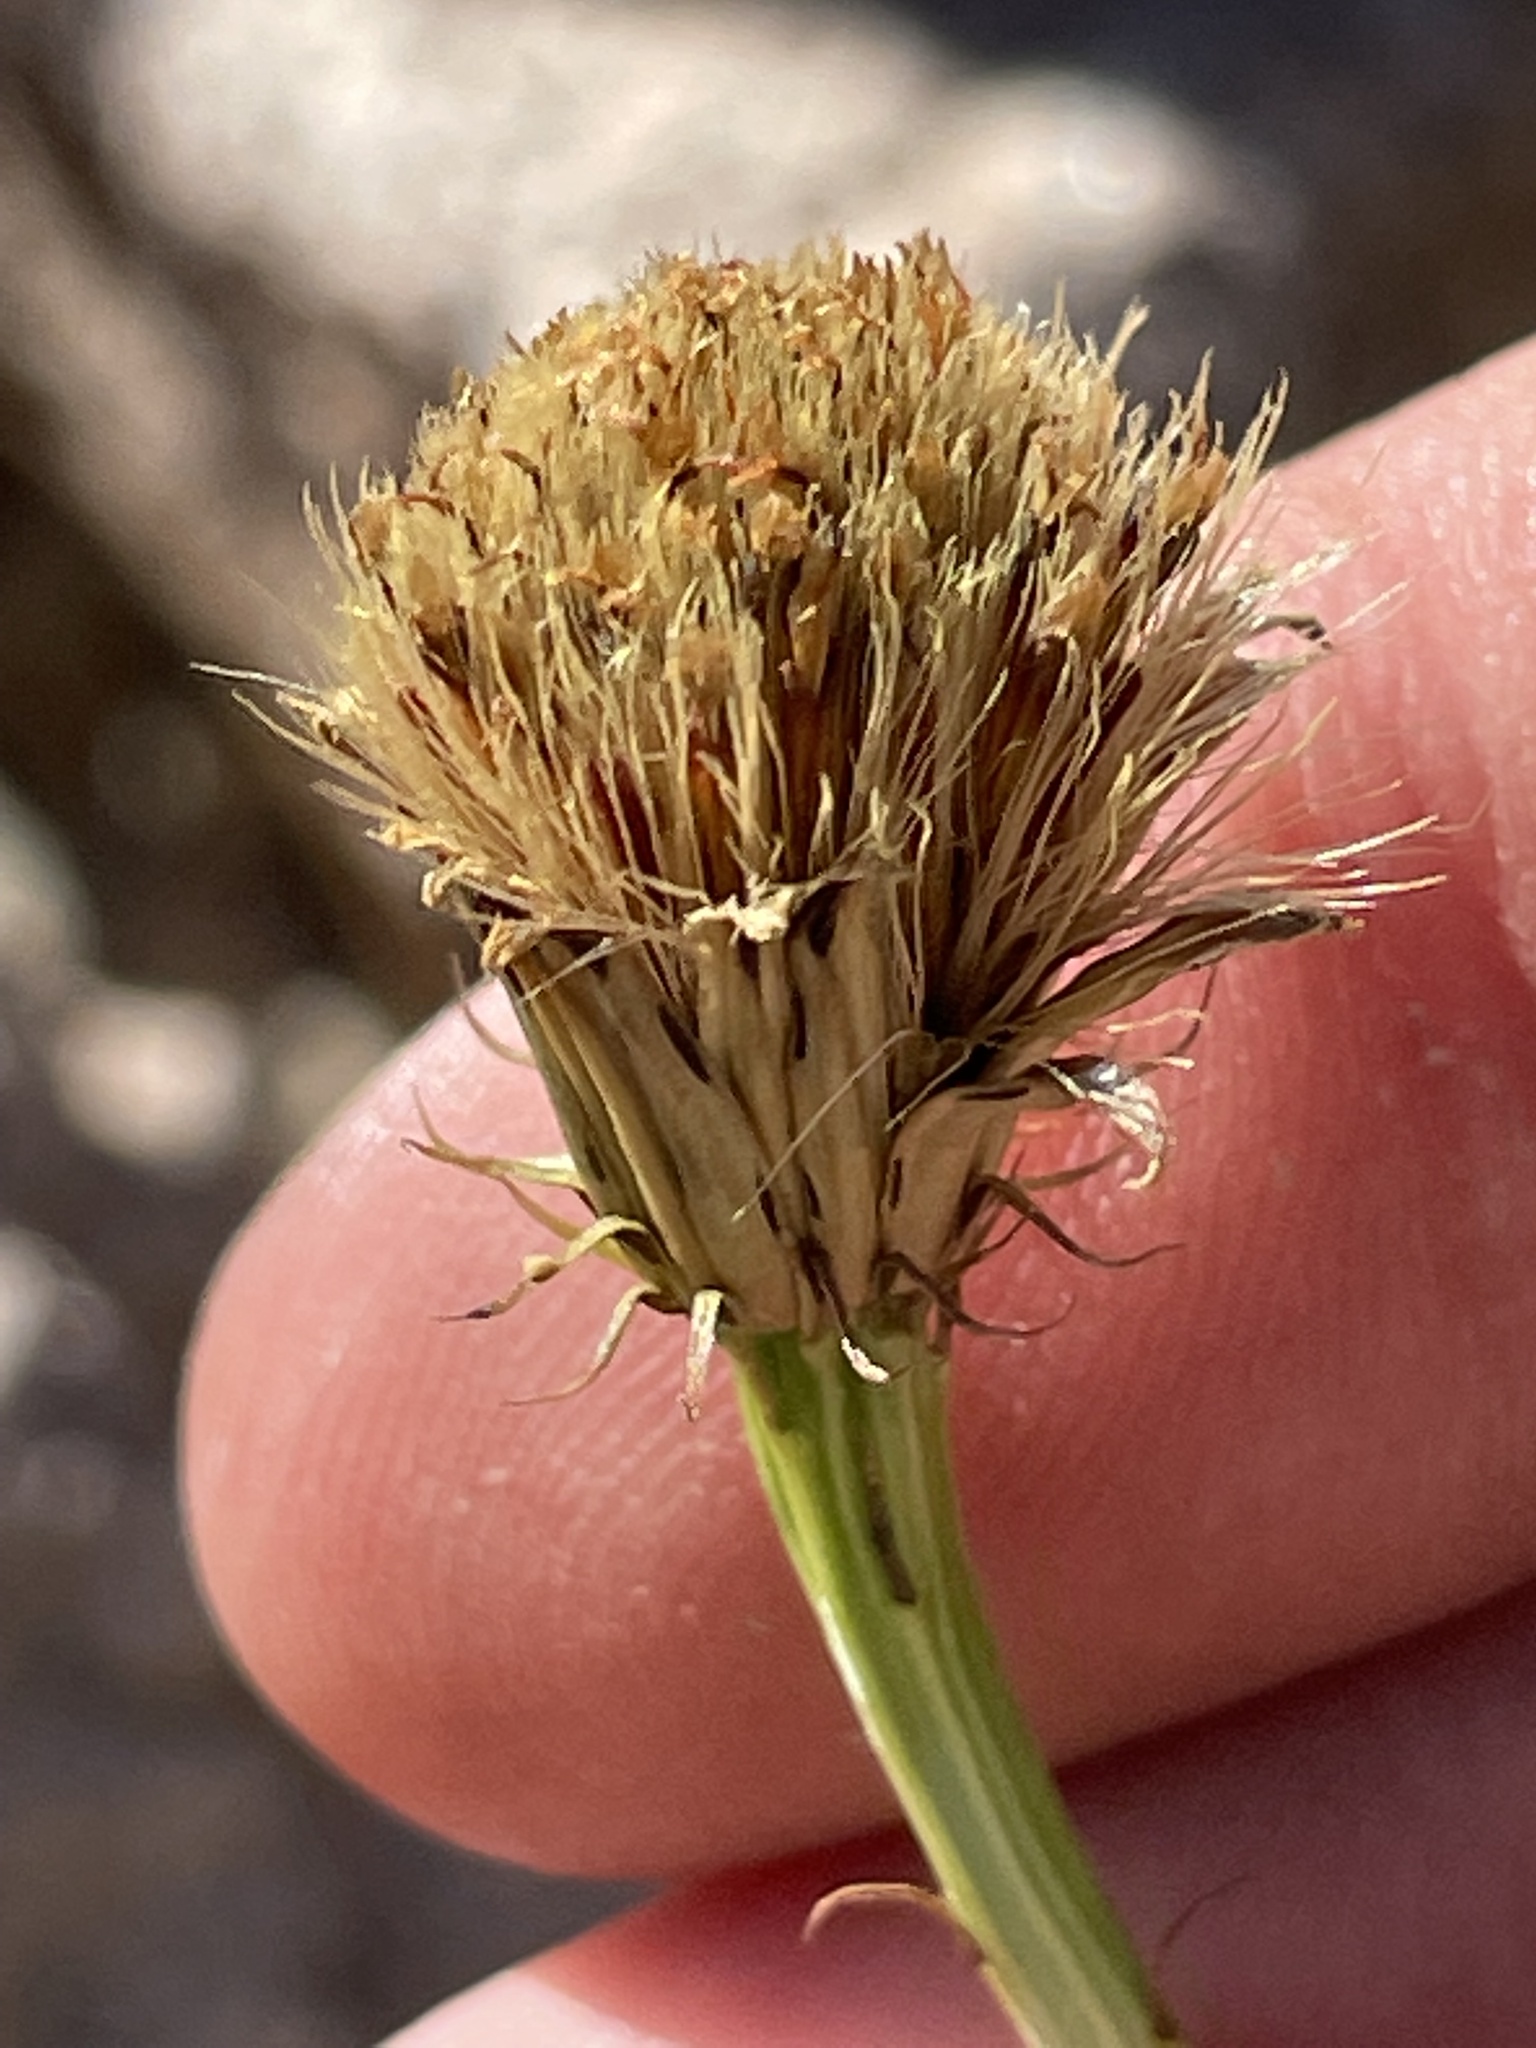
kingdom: Plantae
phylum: Tracheophyta
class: Magnoliopsida
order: Asterales
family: Asteraceae
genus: Adenophyllum
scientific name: Adenophyllum porophylloides
